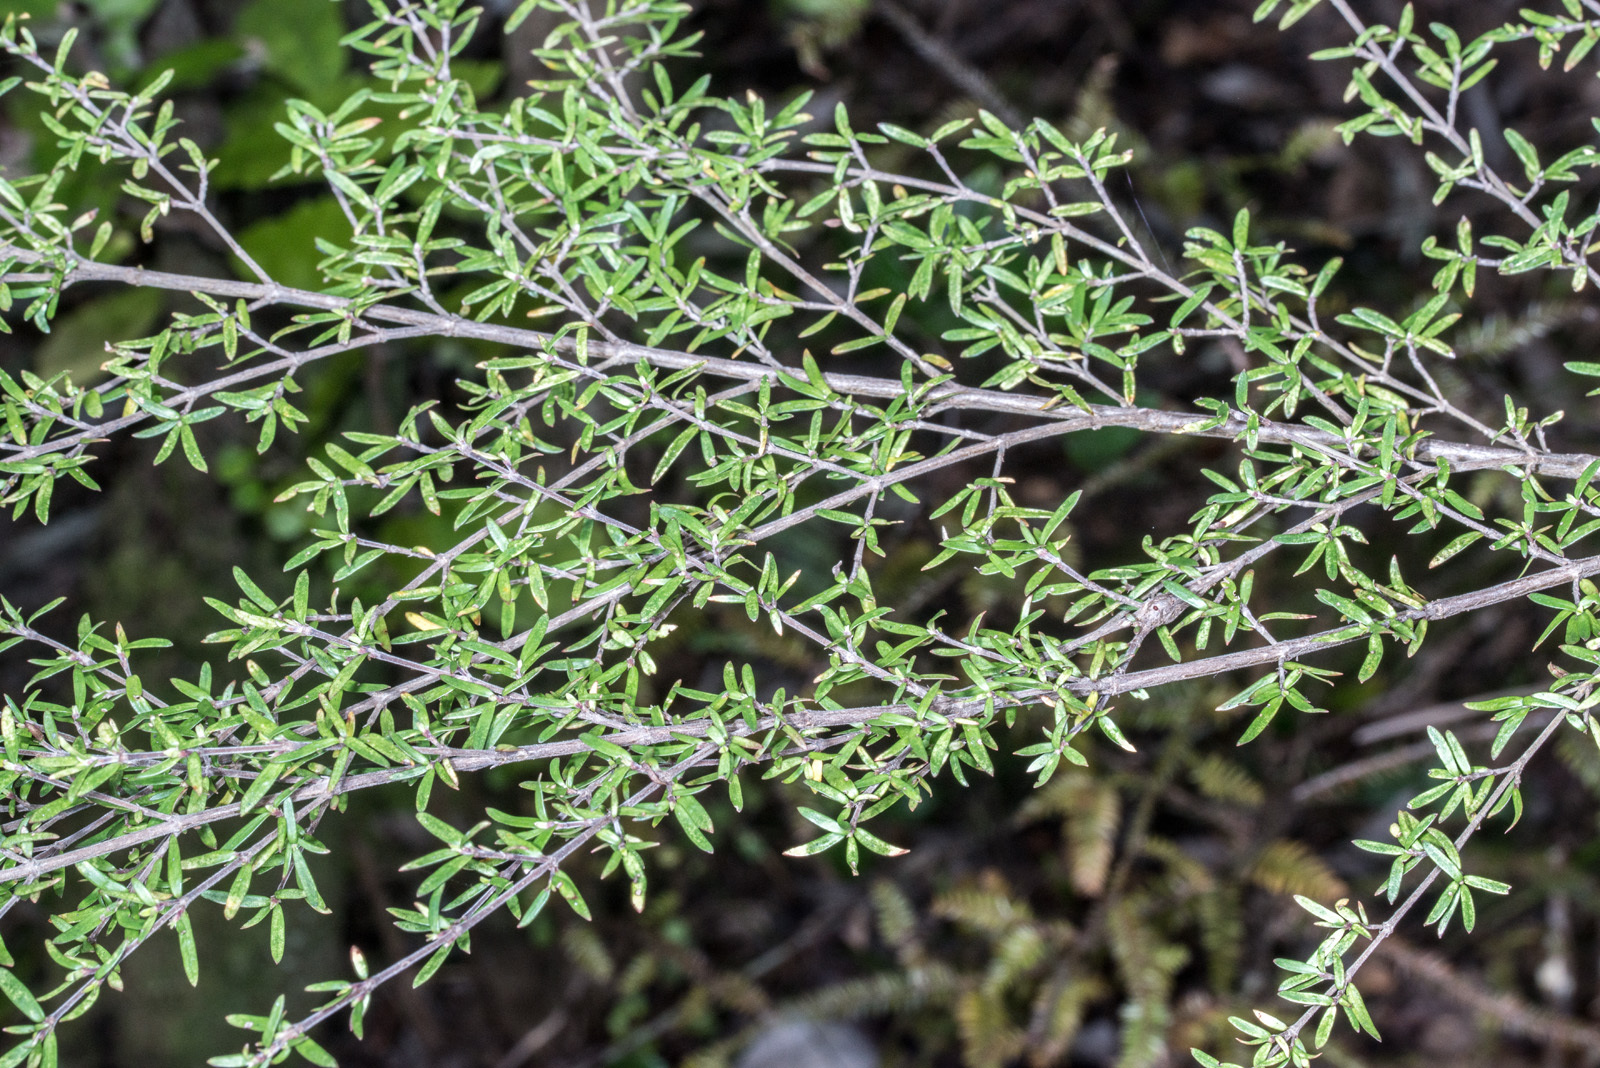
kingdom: Plantae
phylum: Tracheophyta
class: Magnoliopsida
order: Gentianales
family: Rubiaceae
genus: Coprosma
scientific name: Coprosma microcarpa
